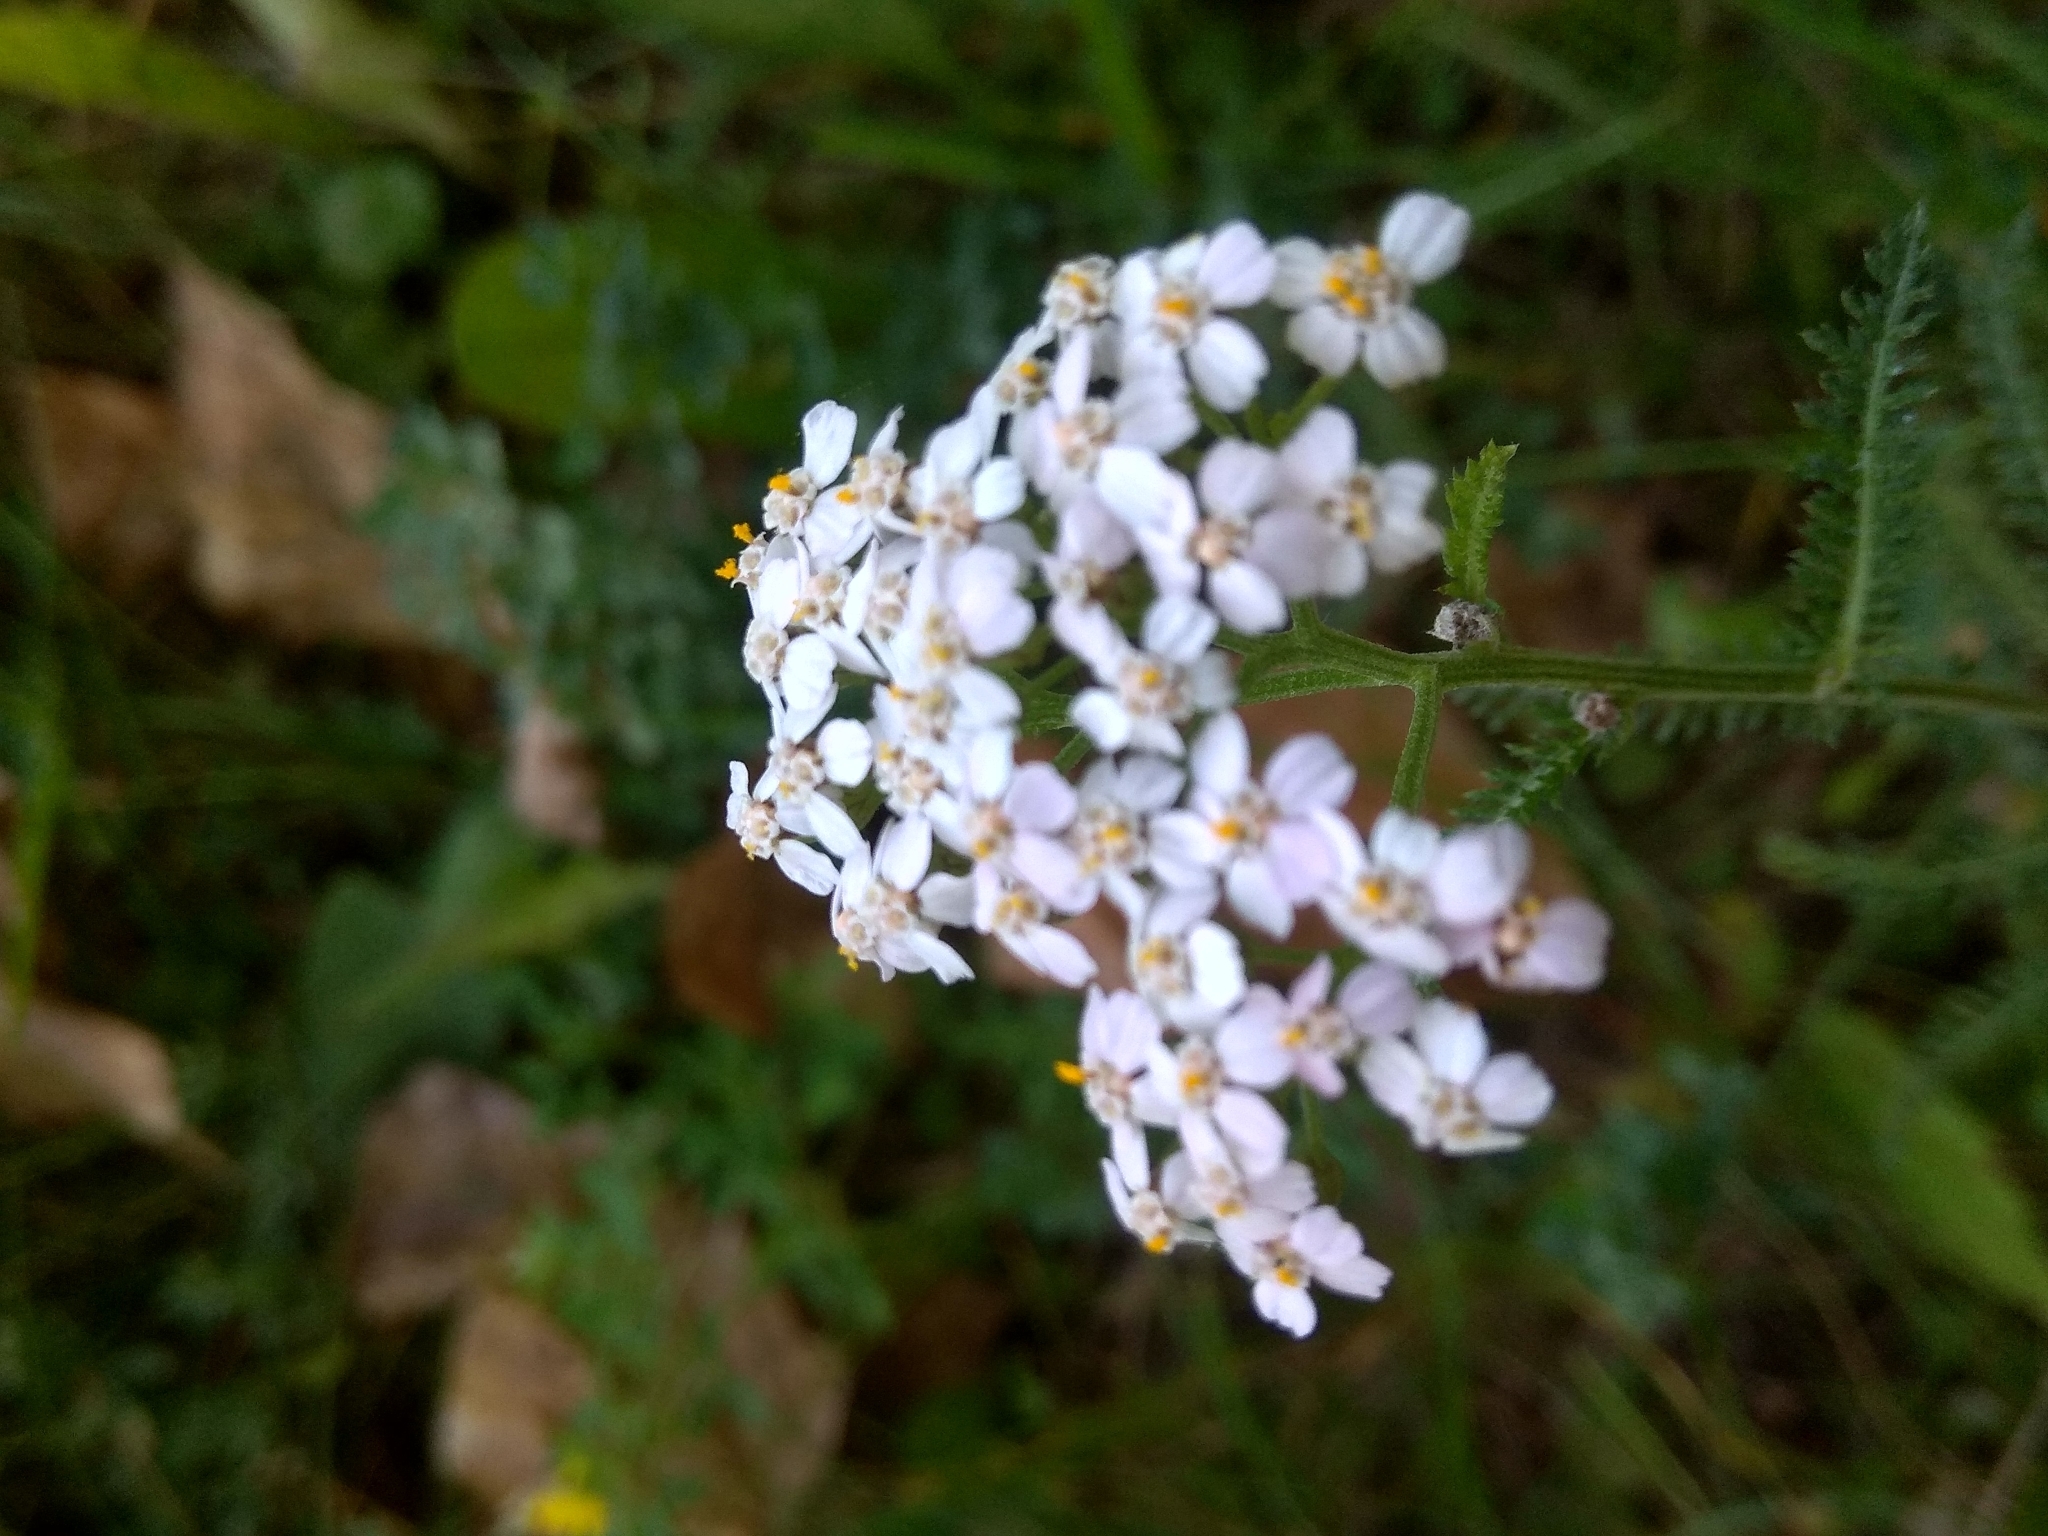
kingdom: Plantae
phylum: Tracheophyta
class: Magnoliopsida
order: Asterales
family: Asteraceae
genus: Achillea
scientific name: Achillea millefolium
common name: Yarrow
